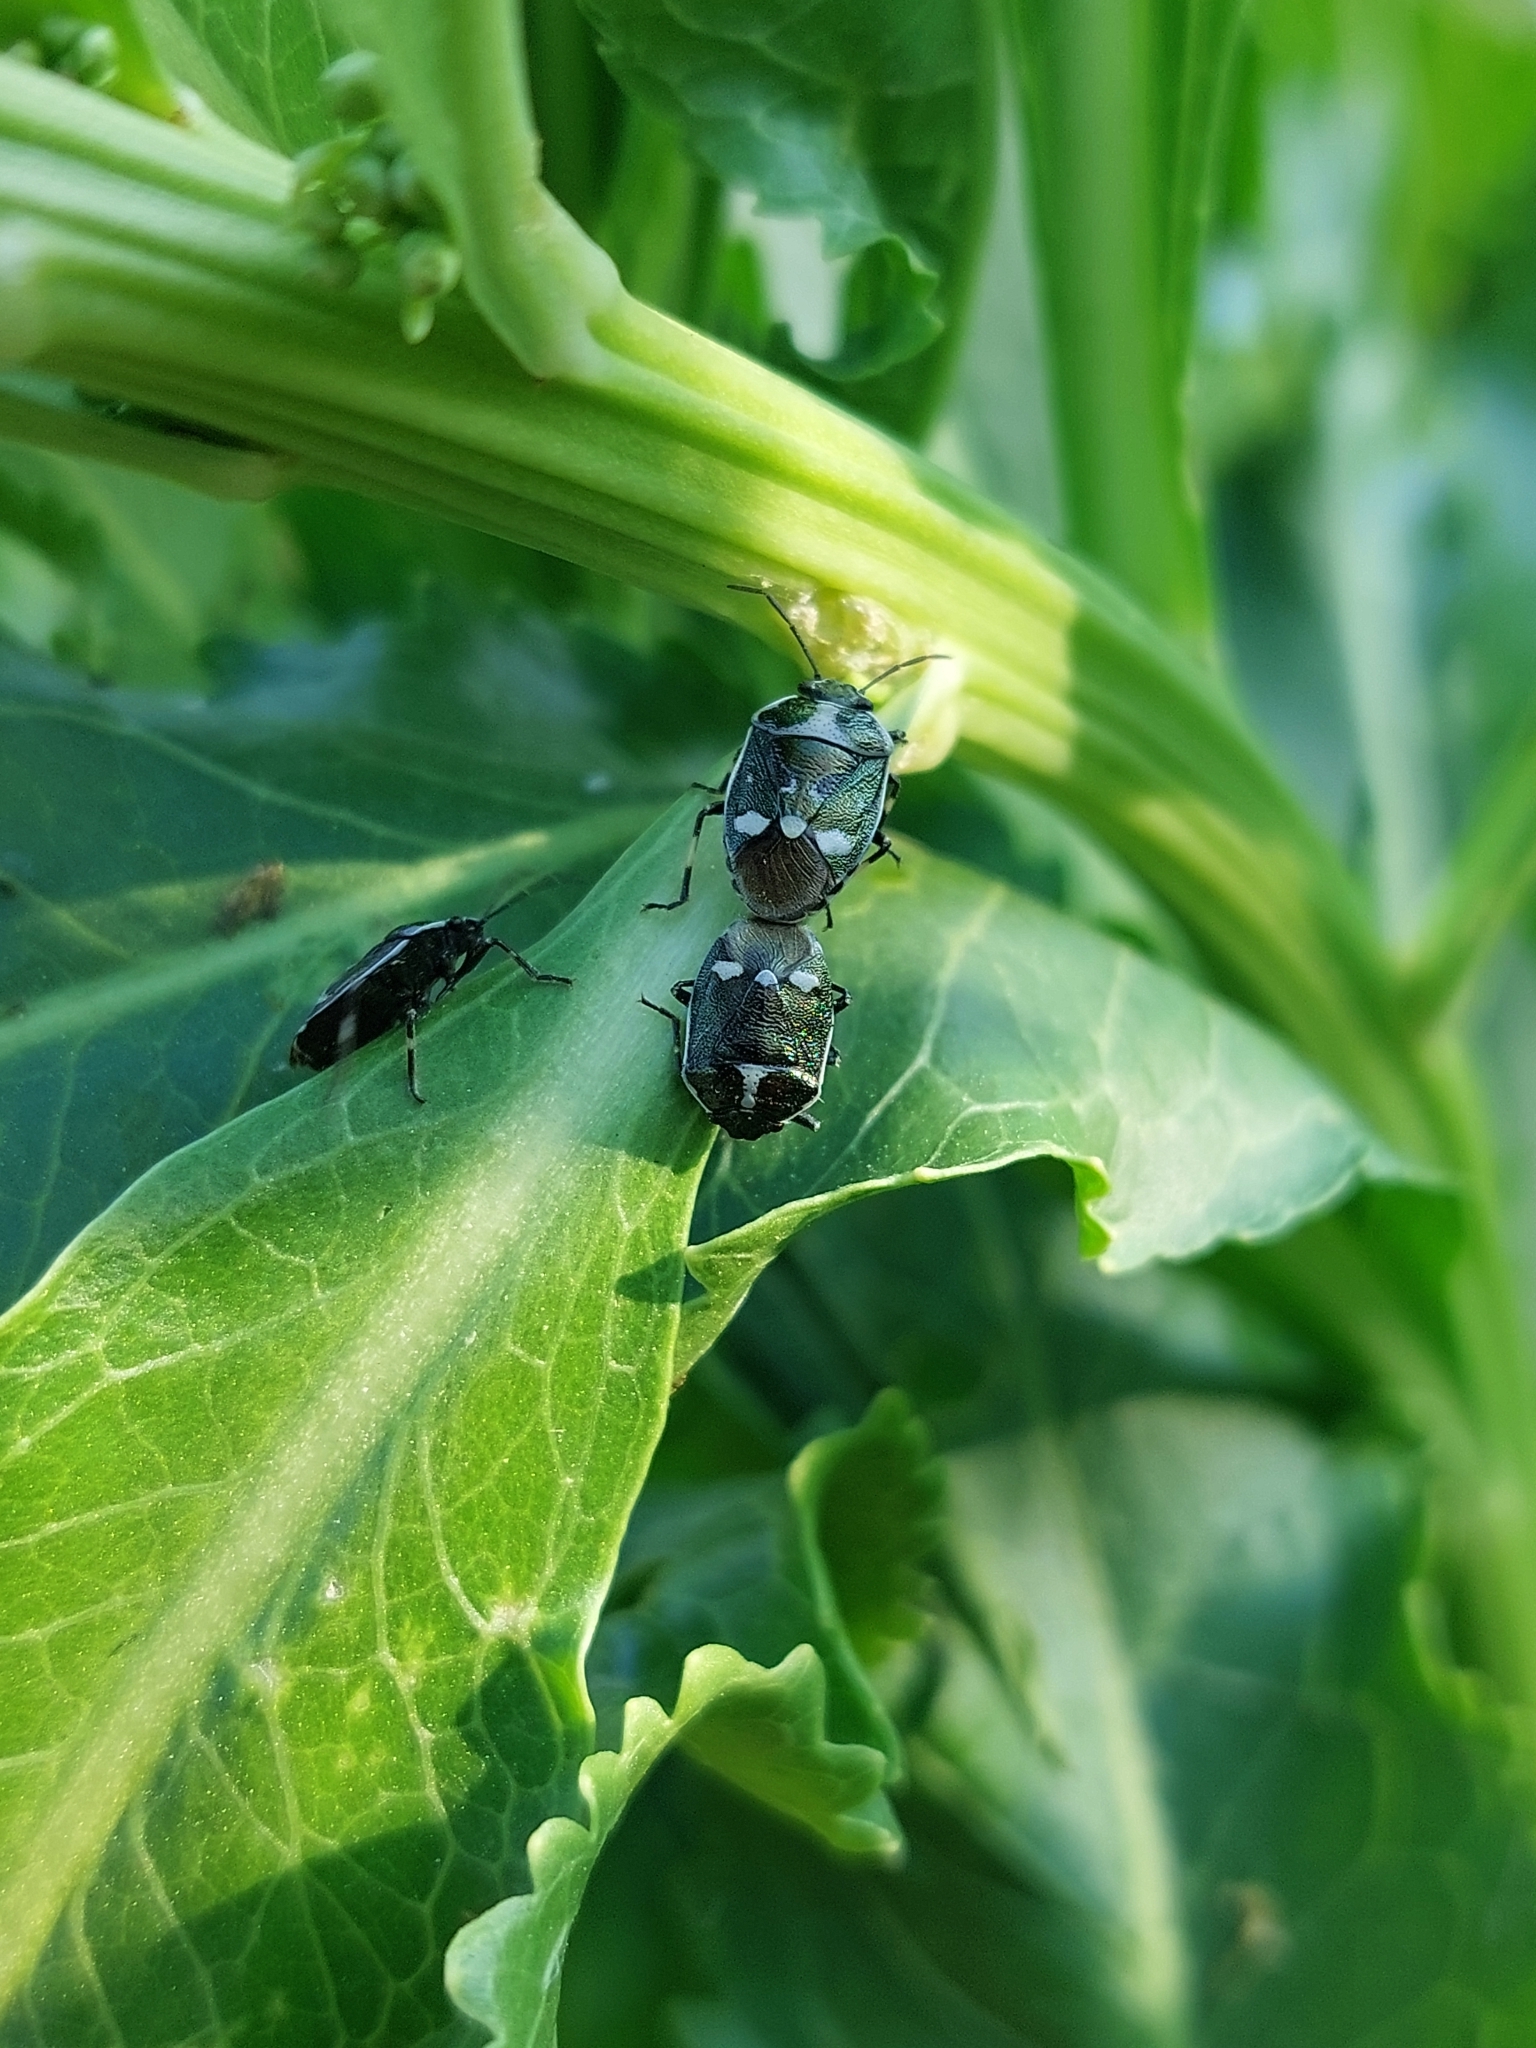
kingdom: Animalia
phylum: Arthropoda
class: Insecta
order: Hemiptera
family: Pentatomidae
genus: Eurydema
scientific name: Eurydema oleracea
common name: Cabbage bug
